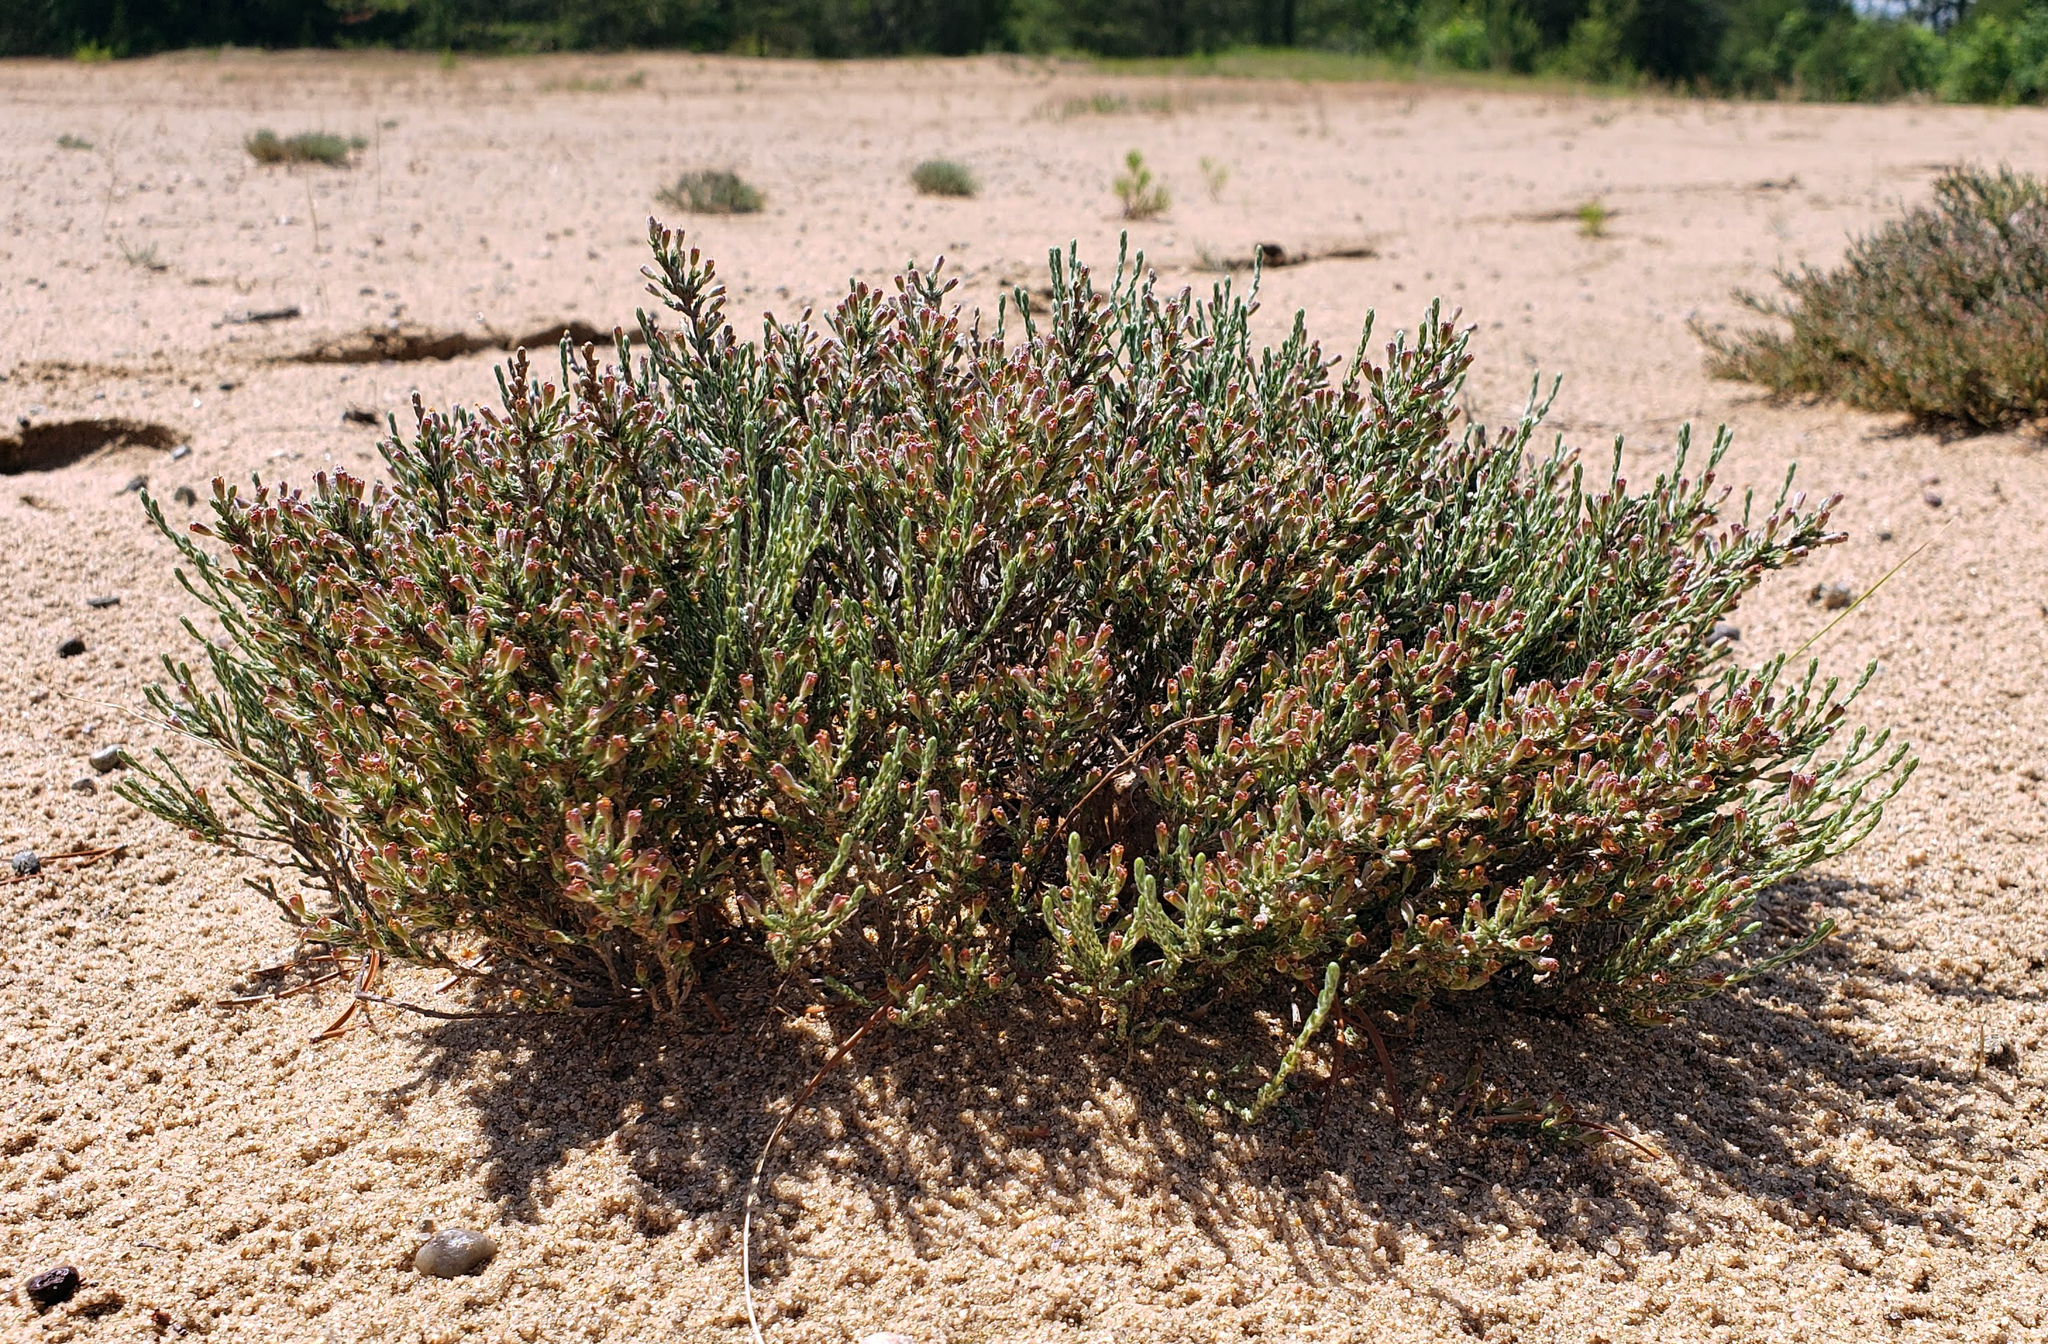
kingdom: Plantae
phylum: Tracheophyta
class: Magnoliopsida
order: Malvales
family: Cistaceae
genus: Hudsonia
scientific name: Hudsonia tomentosa
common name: Beach-heath
